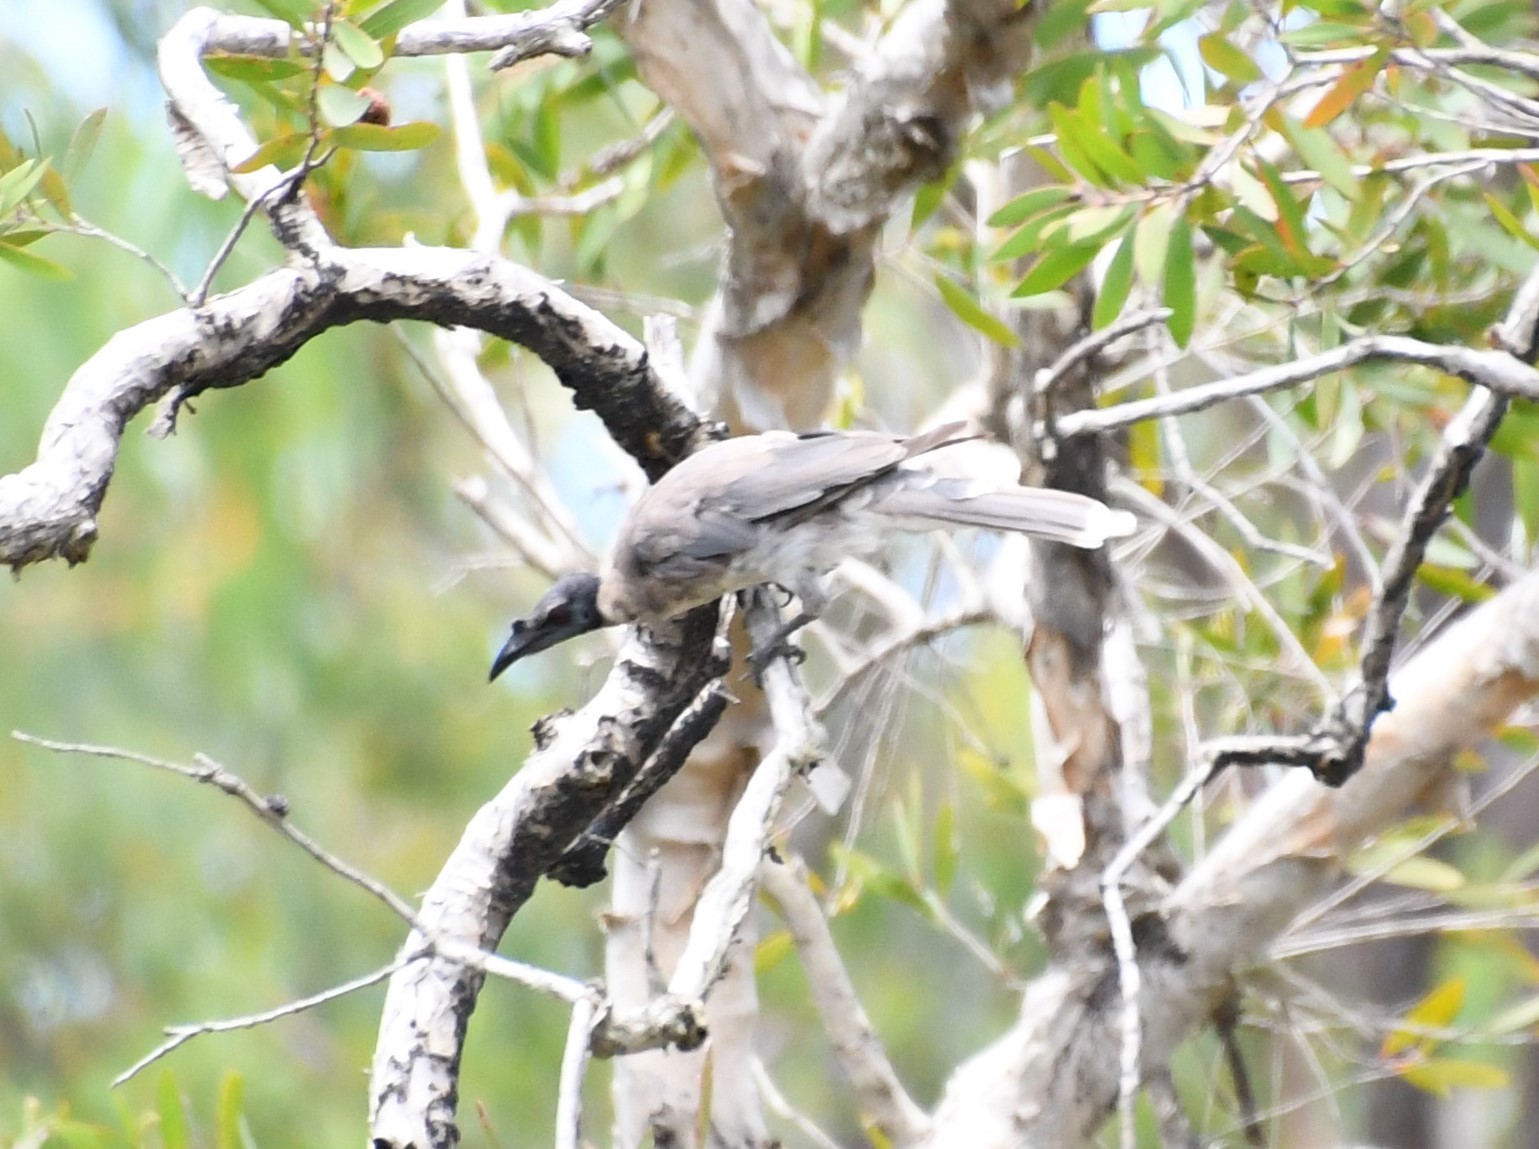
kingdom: Animalia
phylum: Chordata
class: Aves
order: Passeriformes
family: Meliphagidae
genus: Philemon
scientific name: Philemon corniculatus
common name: Noisy friarbird
